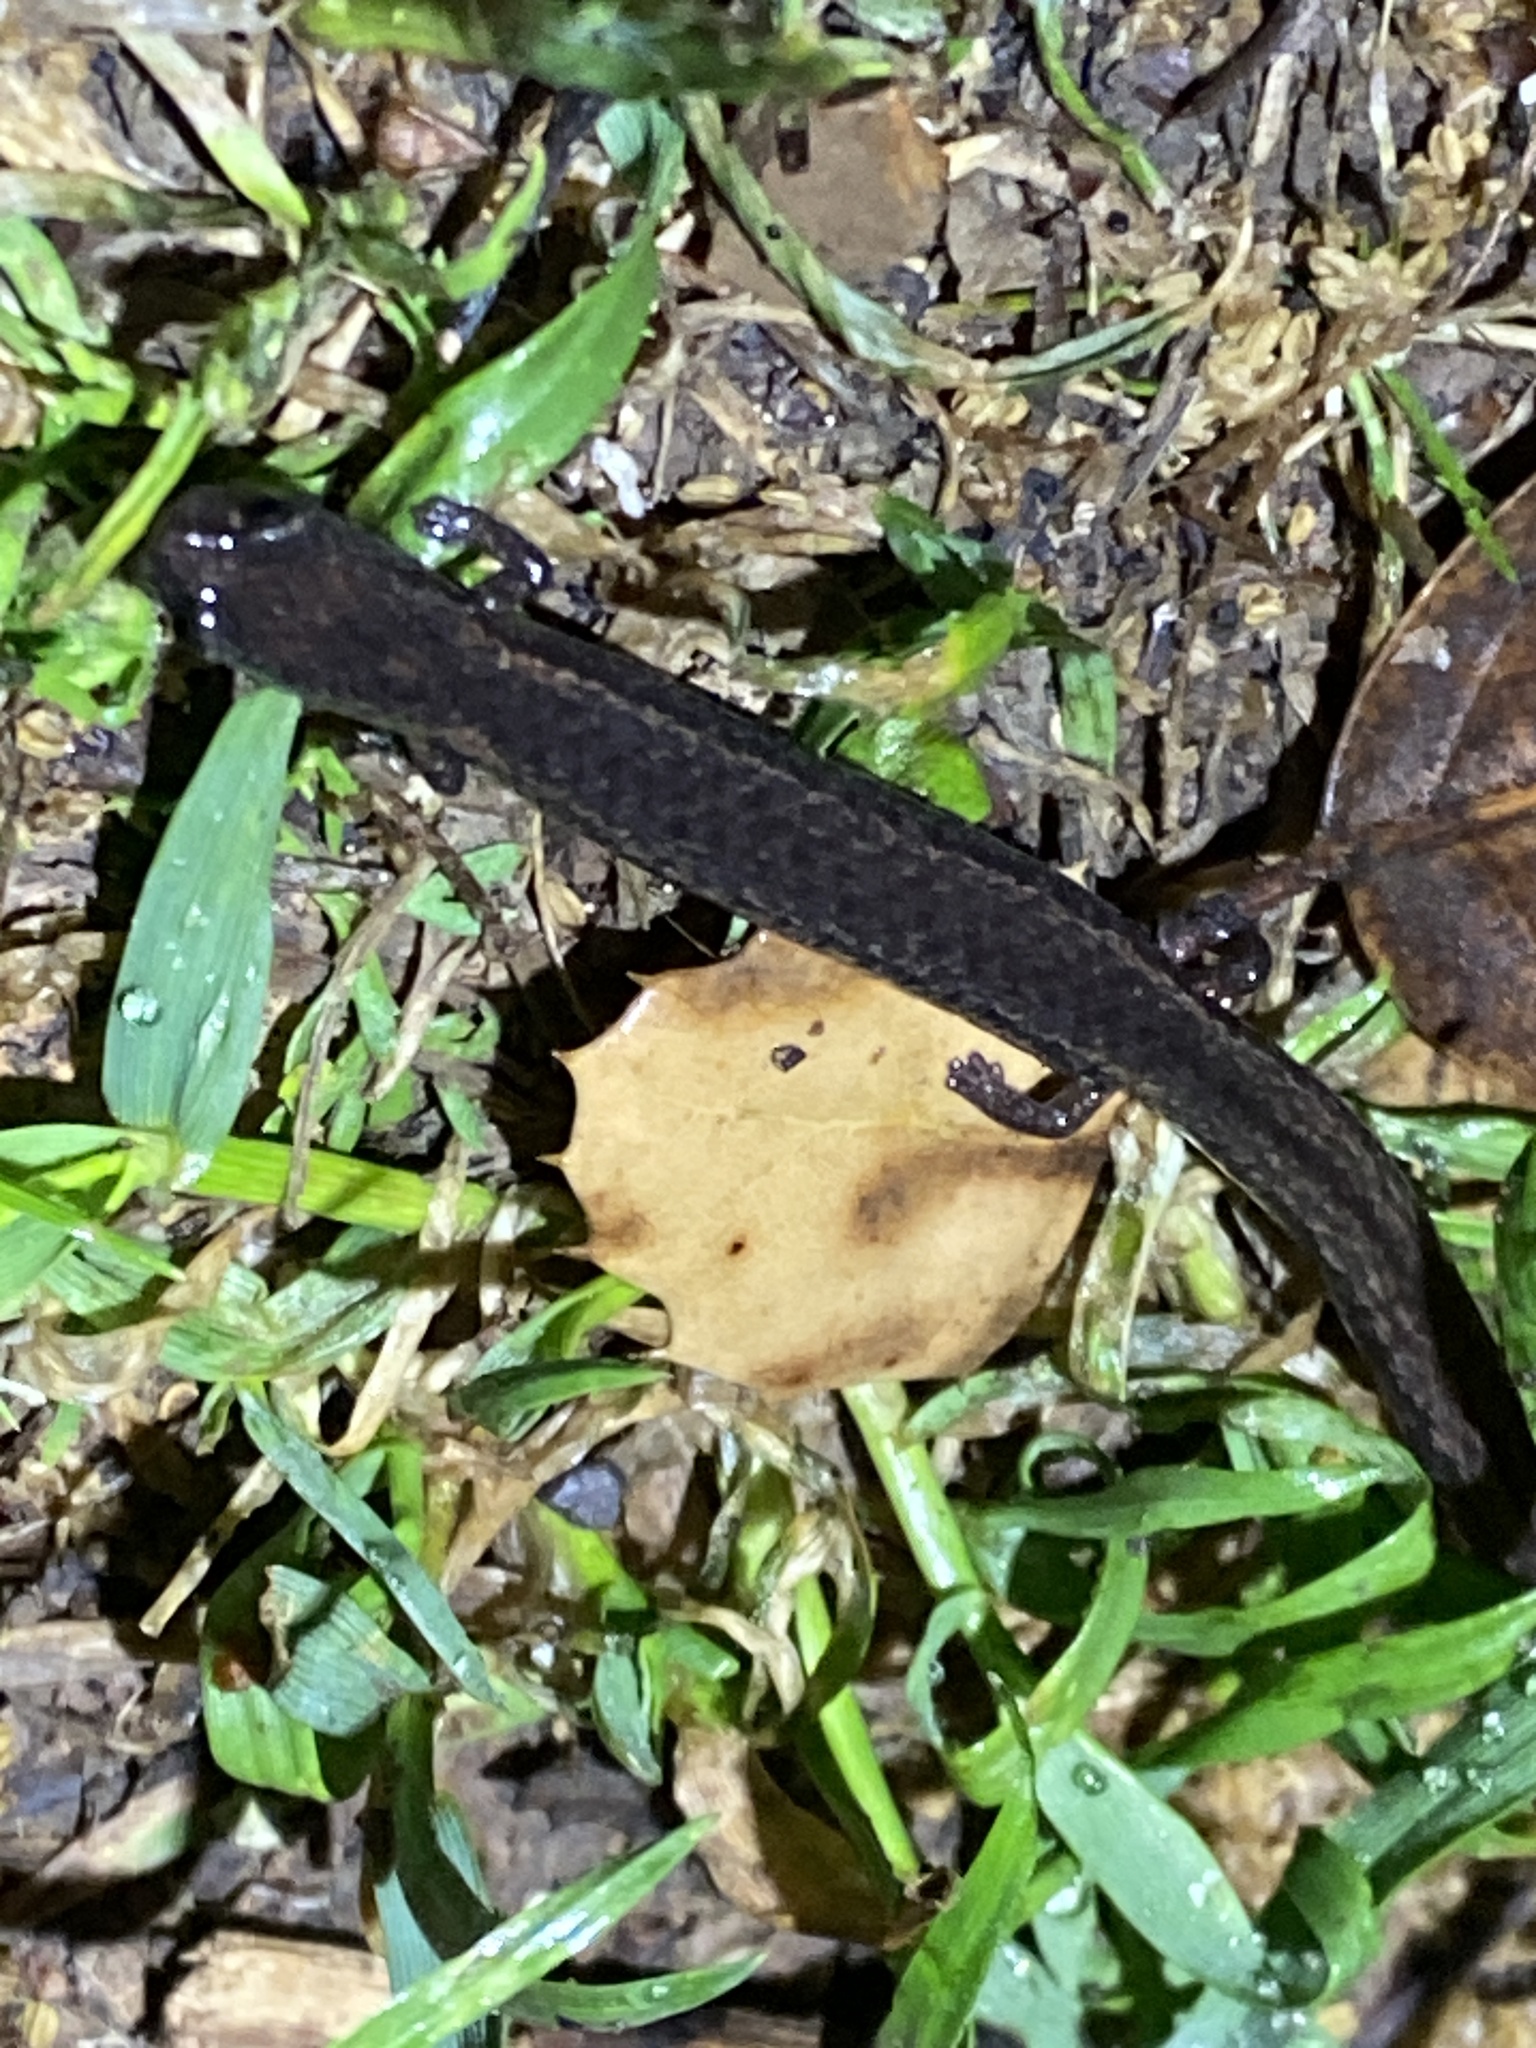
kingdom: Animalia
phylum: Chordata
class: Amphibia
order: Caudata
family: Plethodontidae
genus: Batrachoseps
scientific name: Batrachoseps attenuatus
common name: California slender salamander
